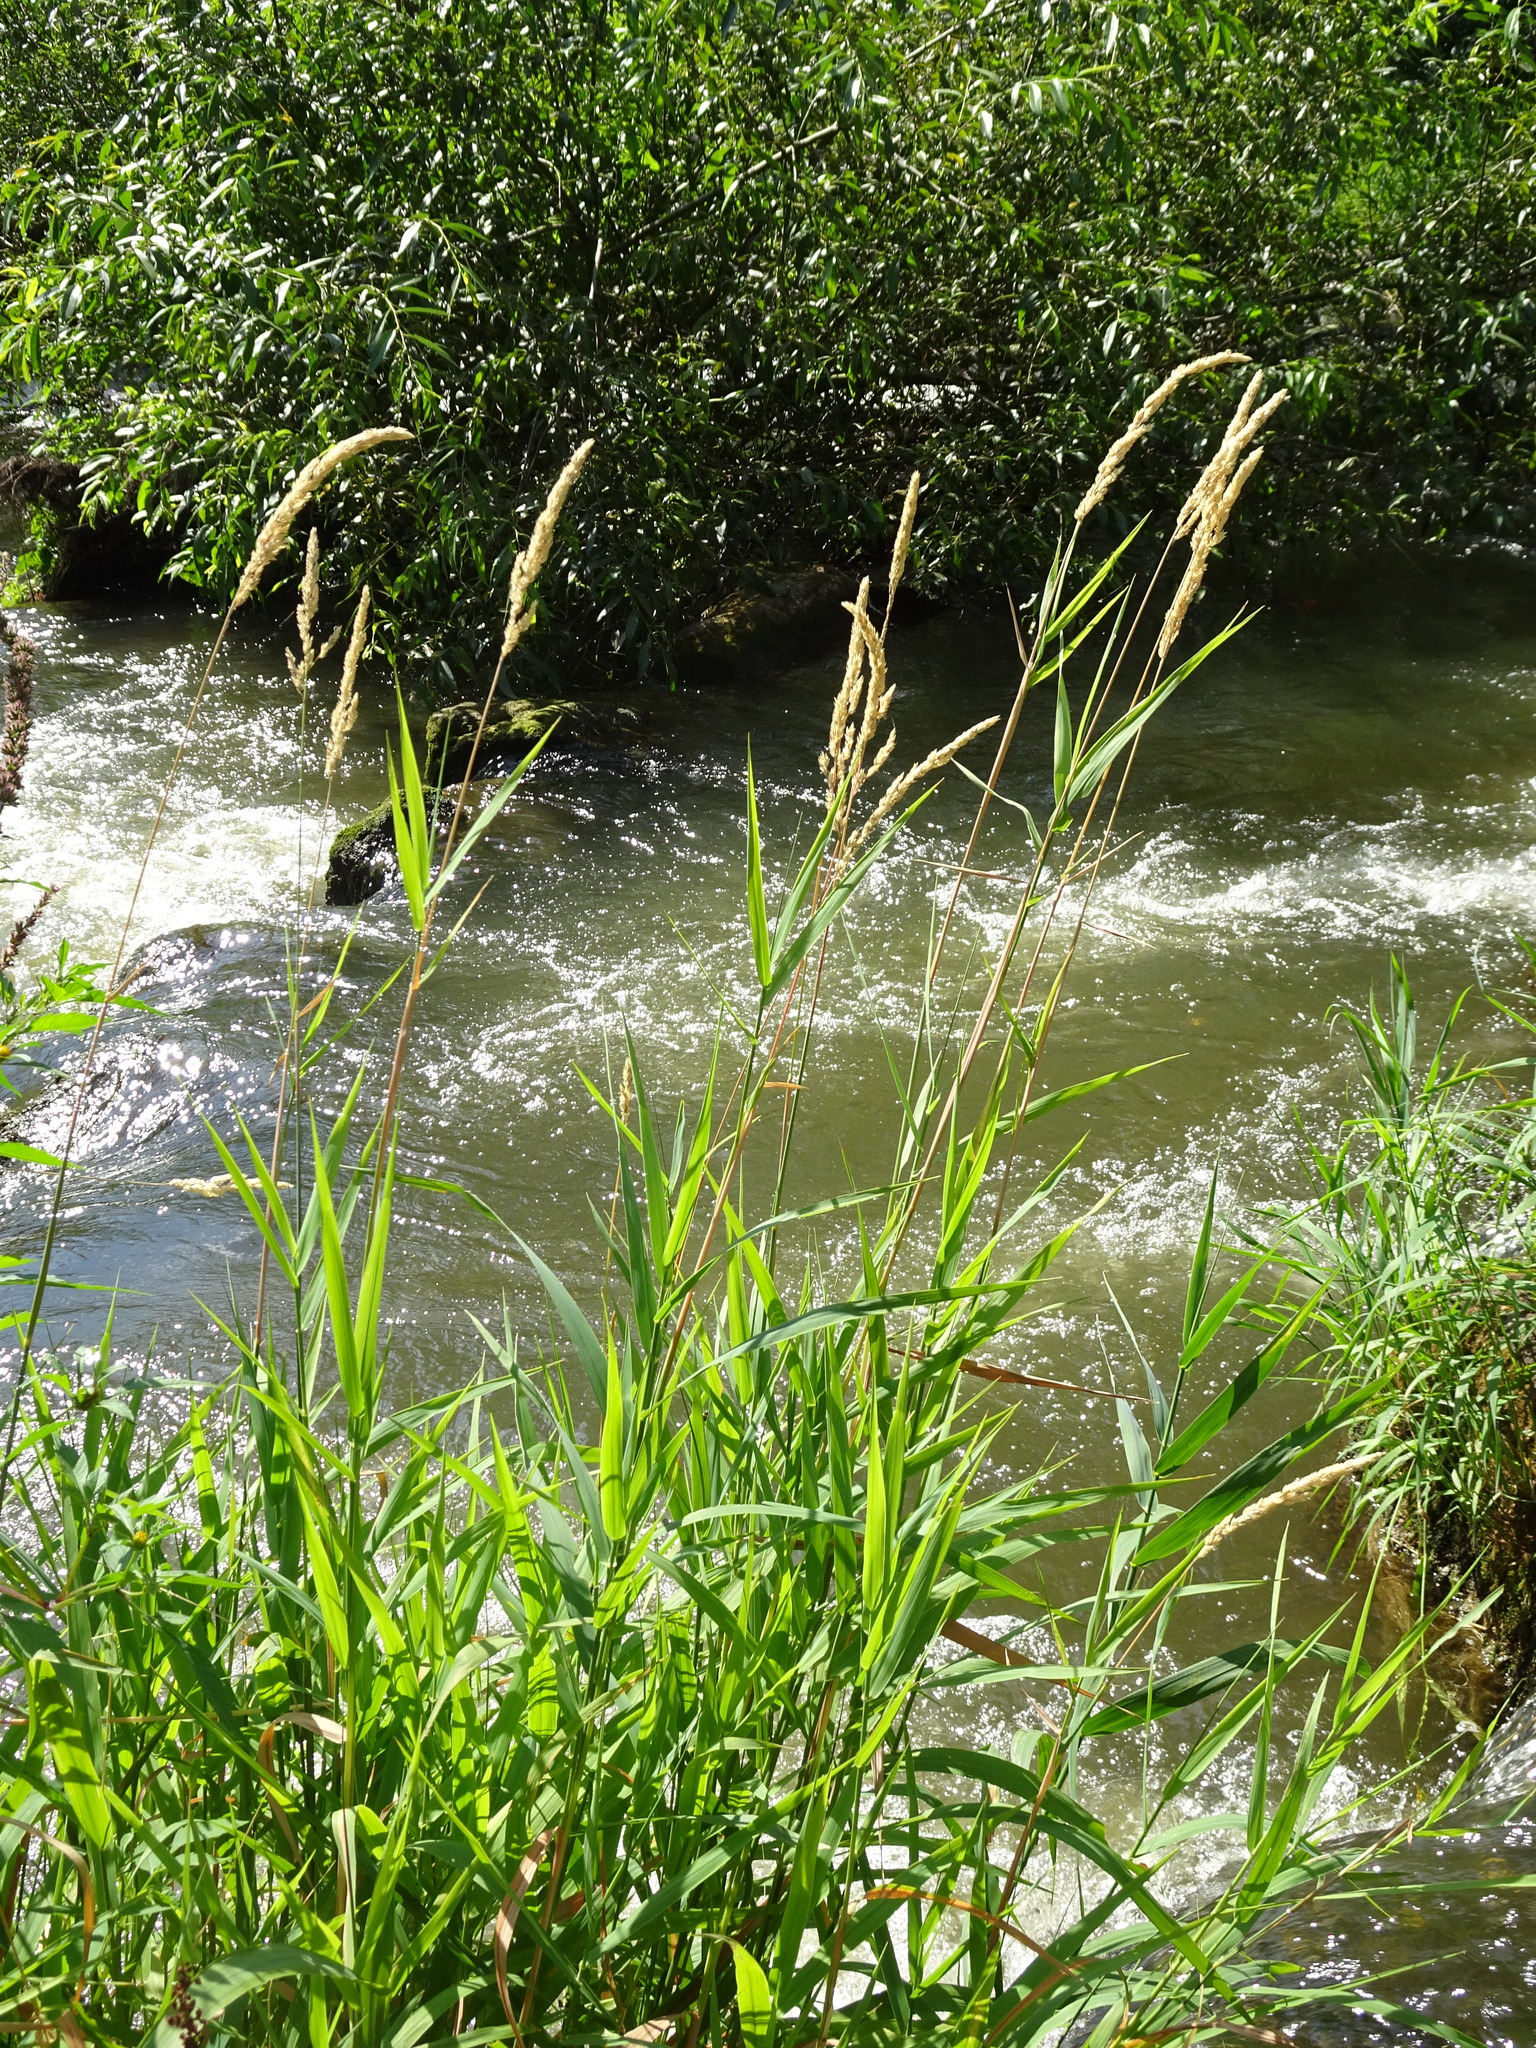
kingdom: Plantae
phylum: Tracheophyta
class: Liliopsida
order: Poales
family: Poaceae
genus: Phalaris
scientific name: Phalaris arundinacea
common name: Reed canary-grass
